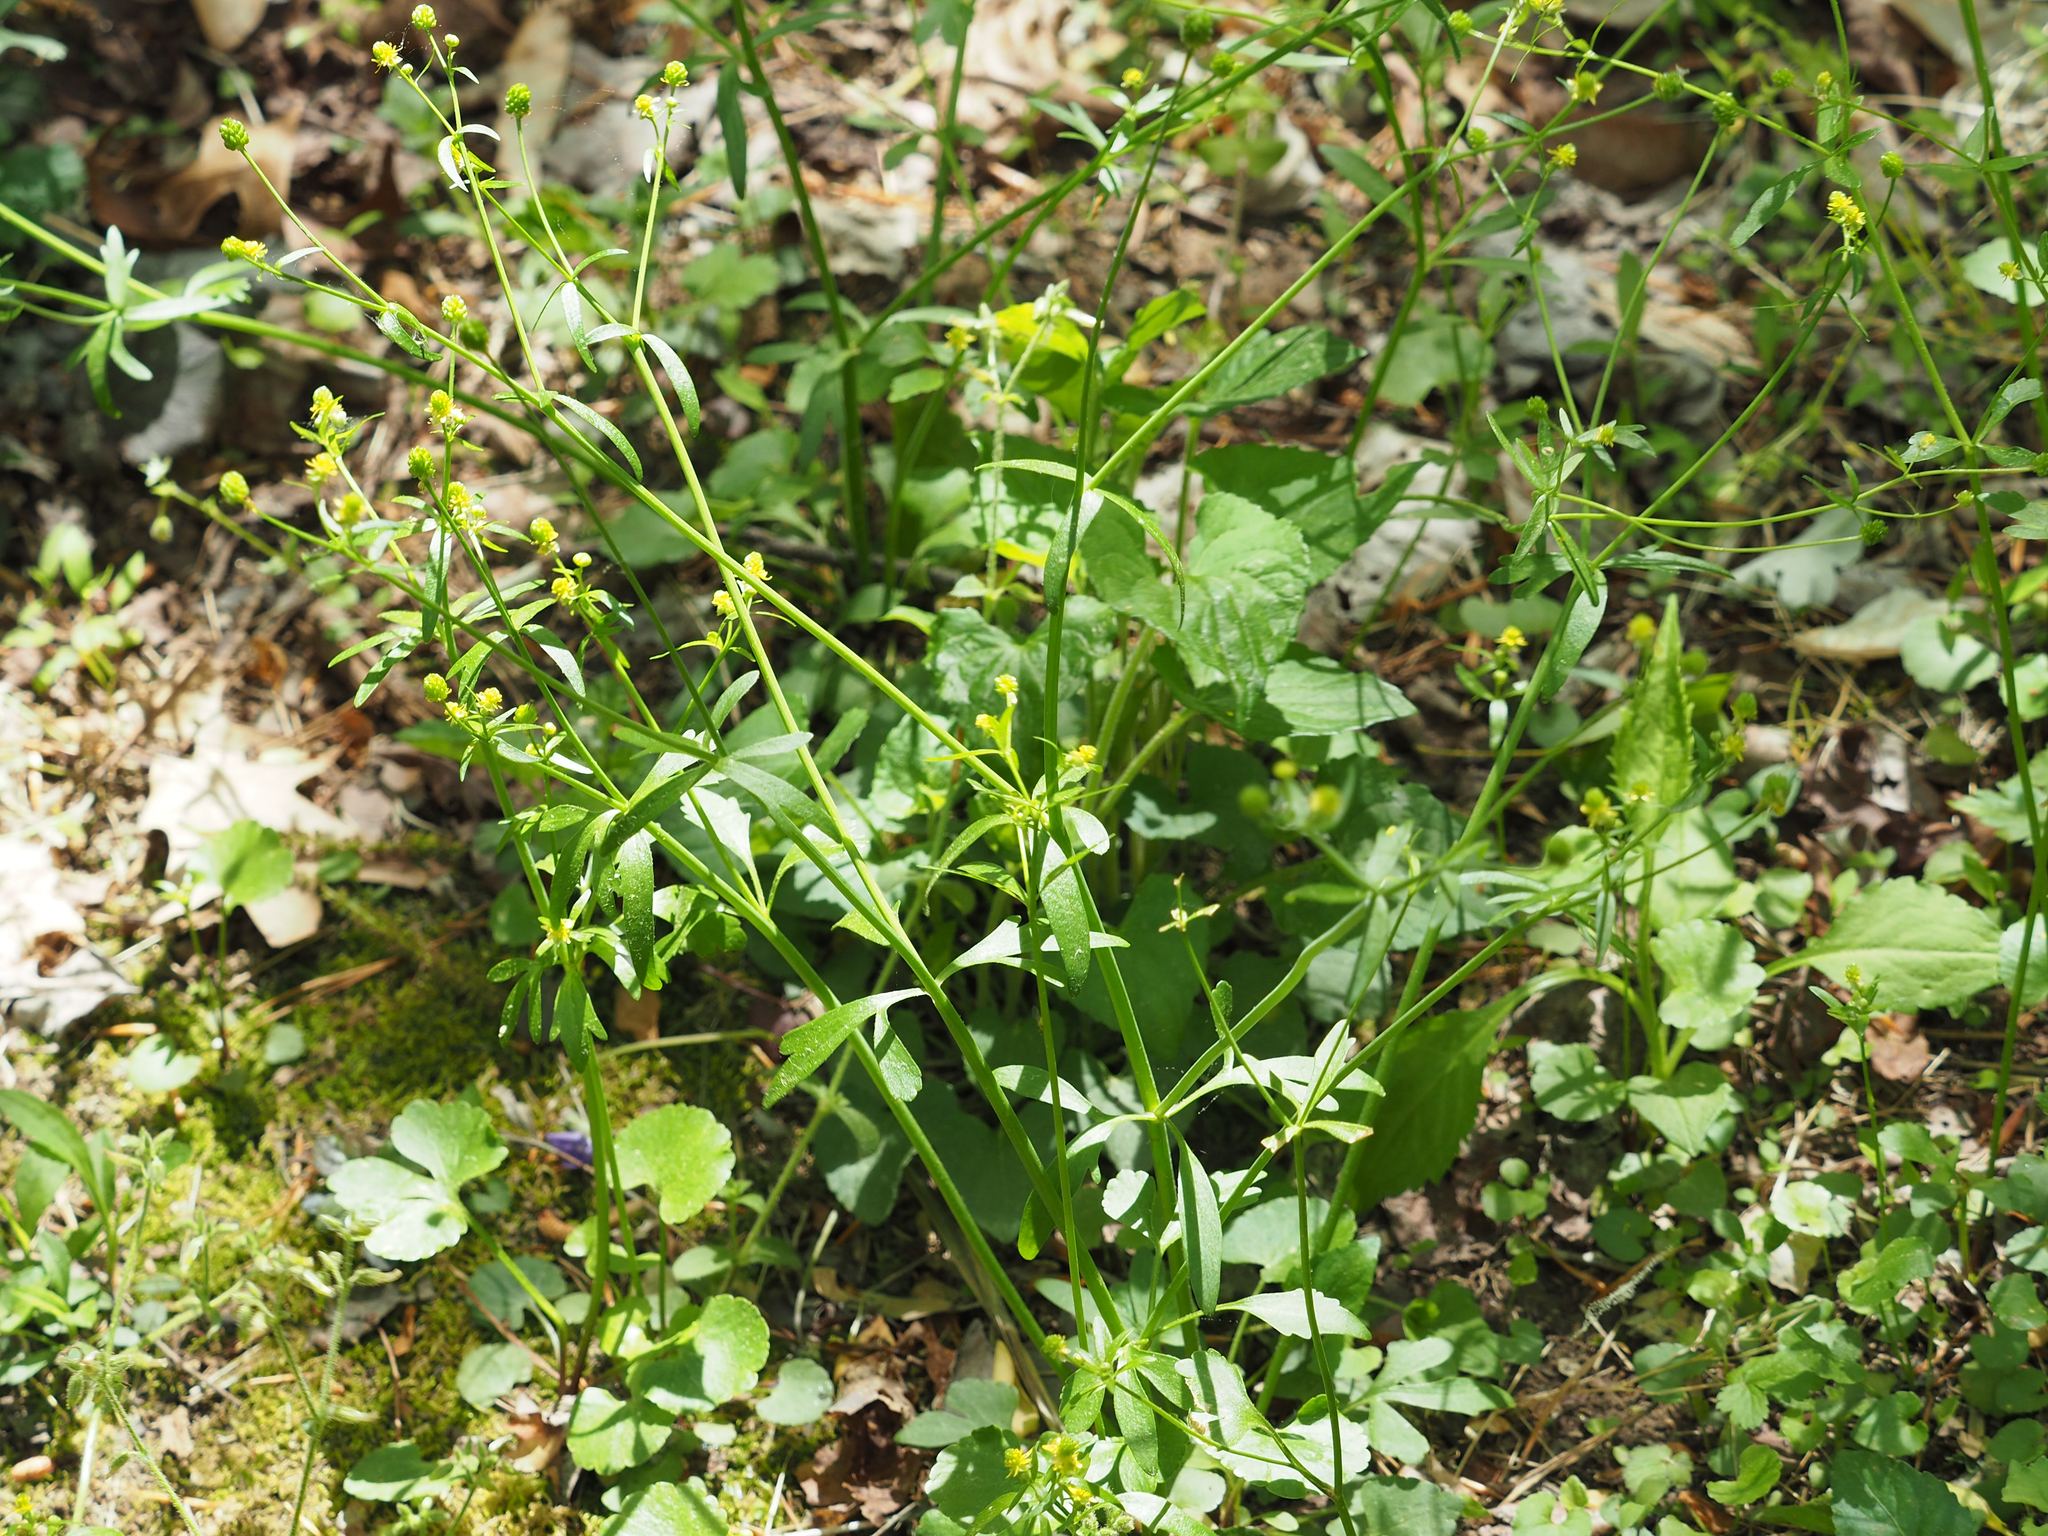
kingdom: Plantae
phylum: Tracheophyta
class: Magnoliopsida
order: Ranunculales
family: Ranunculaceae
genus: Ranunculus
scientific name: Ranunculus abortivus
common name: Early wood buttercup
